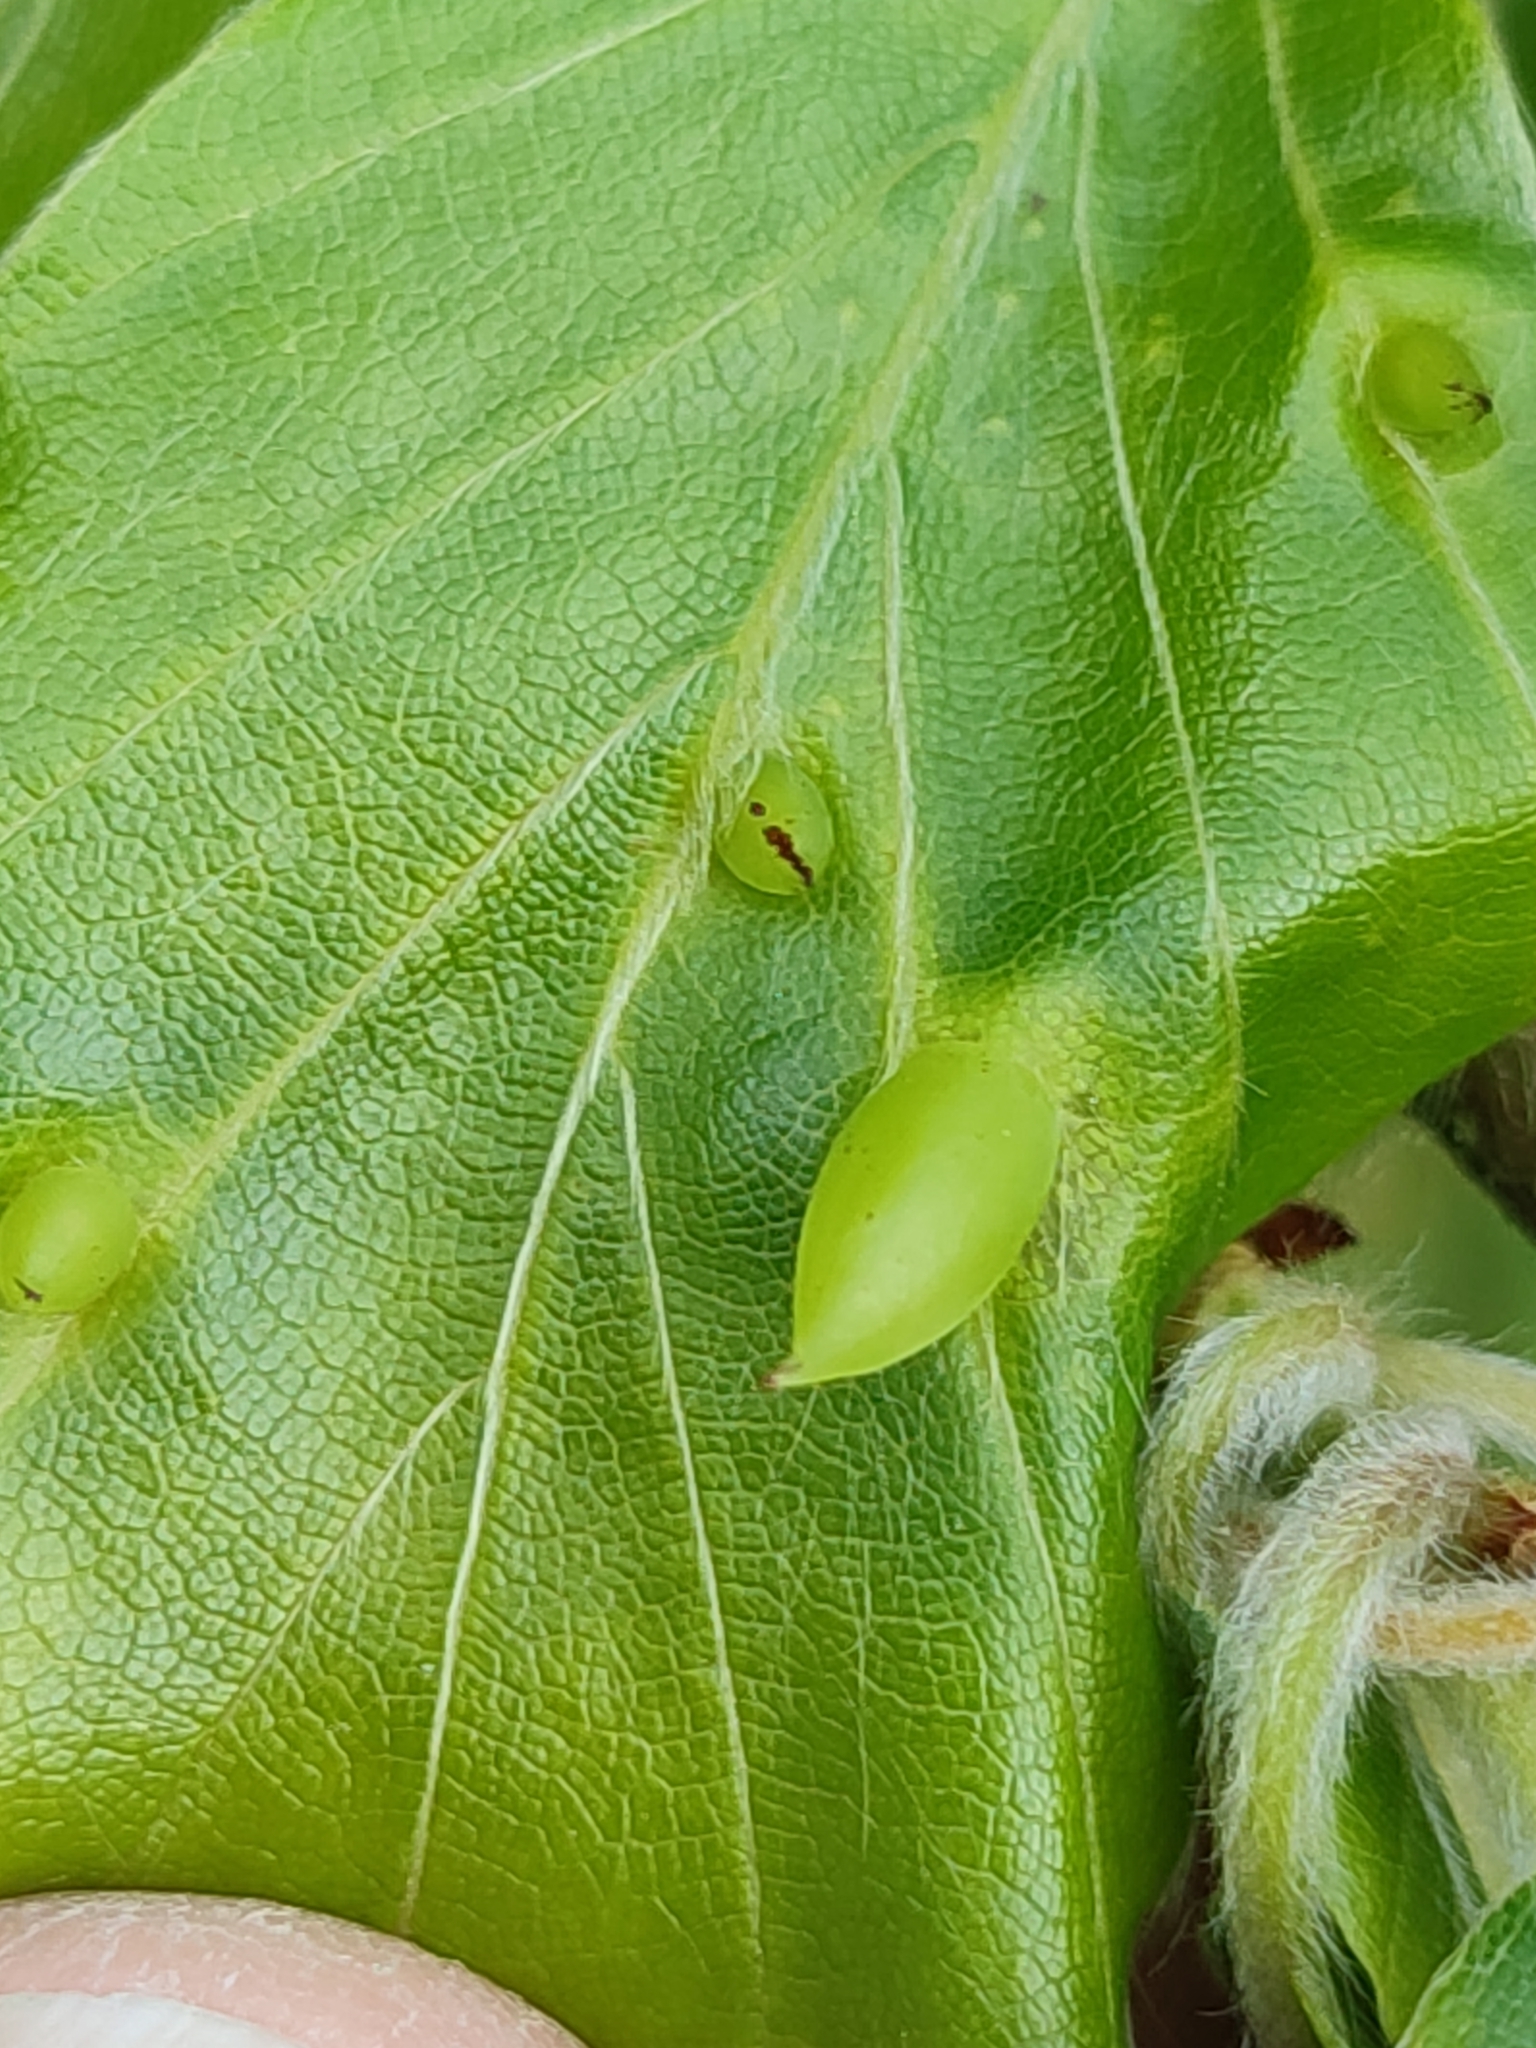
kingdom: Animalia
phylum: Arthropoda
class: Insecta
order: Diptera
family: Cecidomyiidae
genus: Mikiola
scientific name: Mikiola fagi
